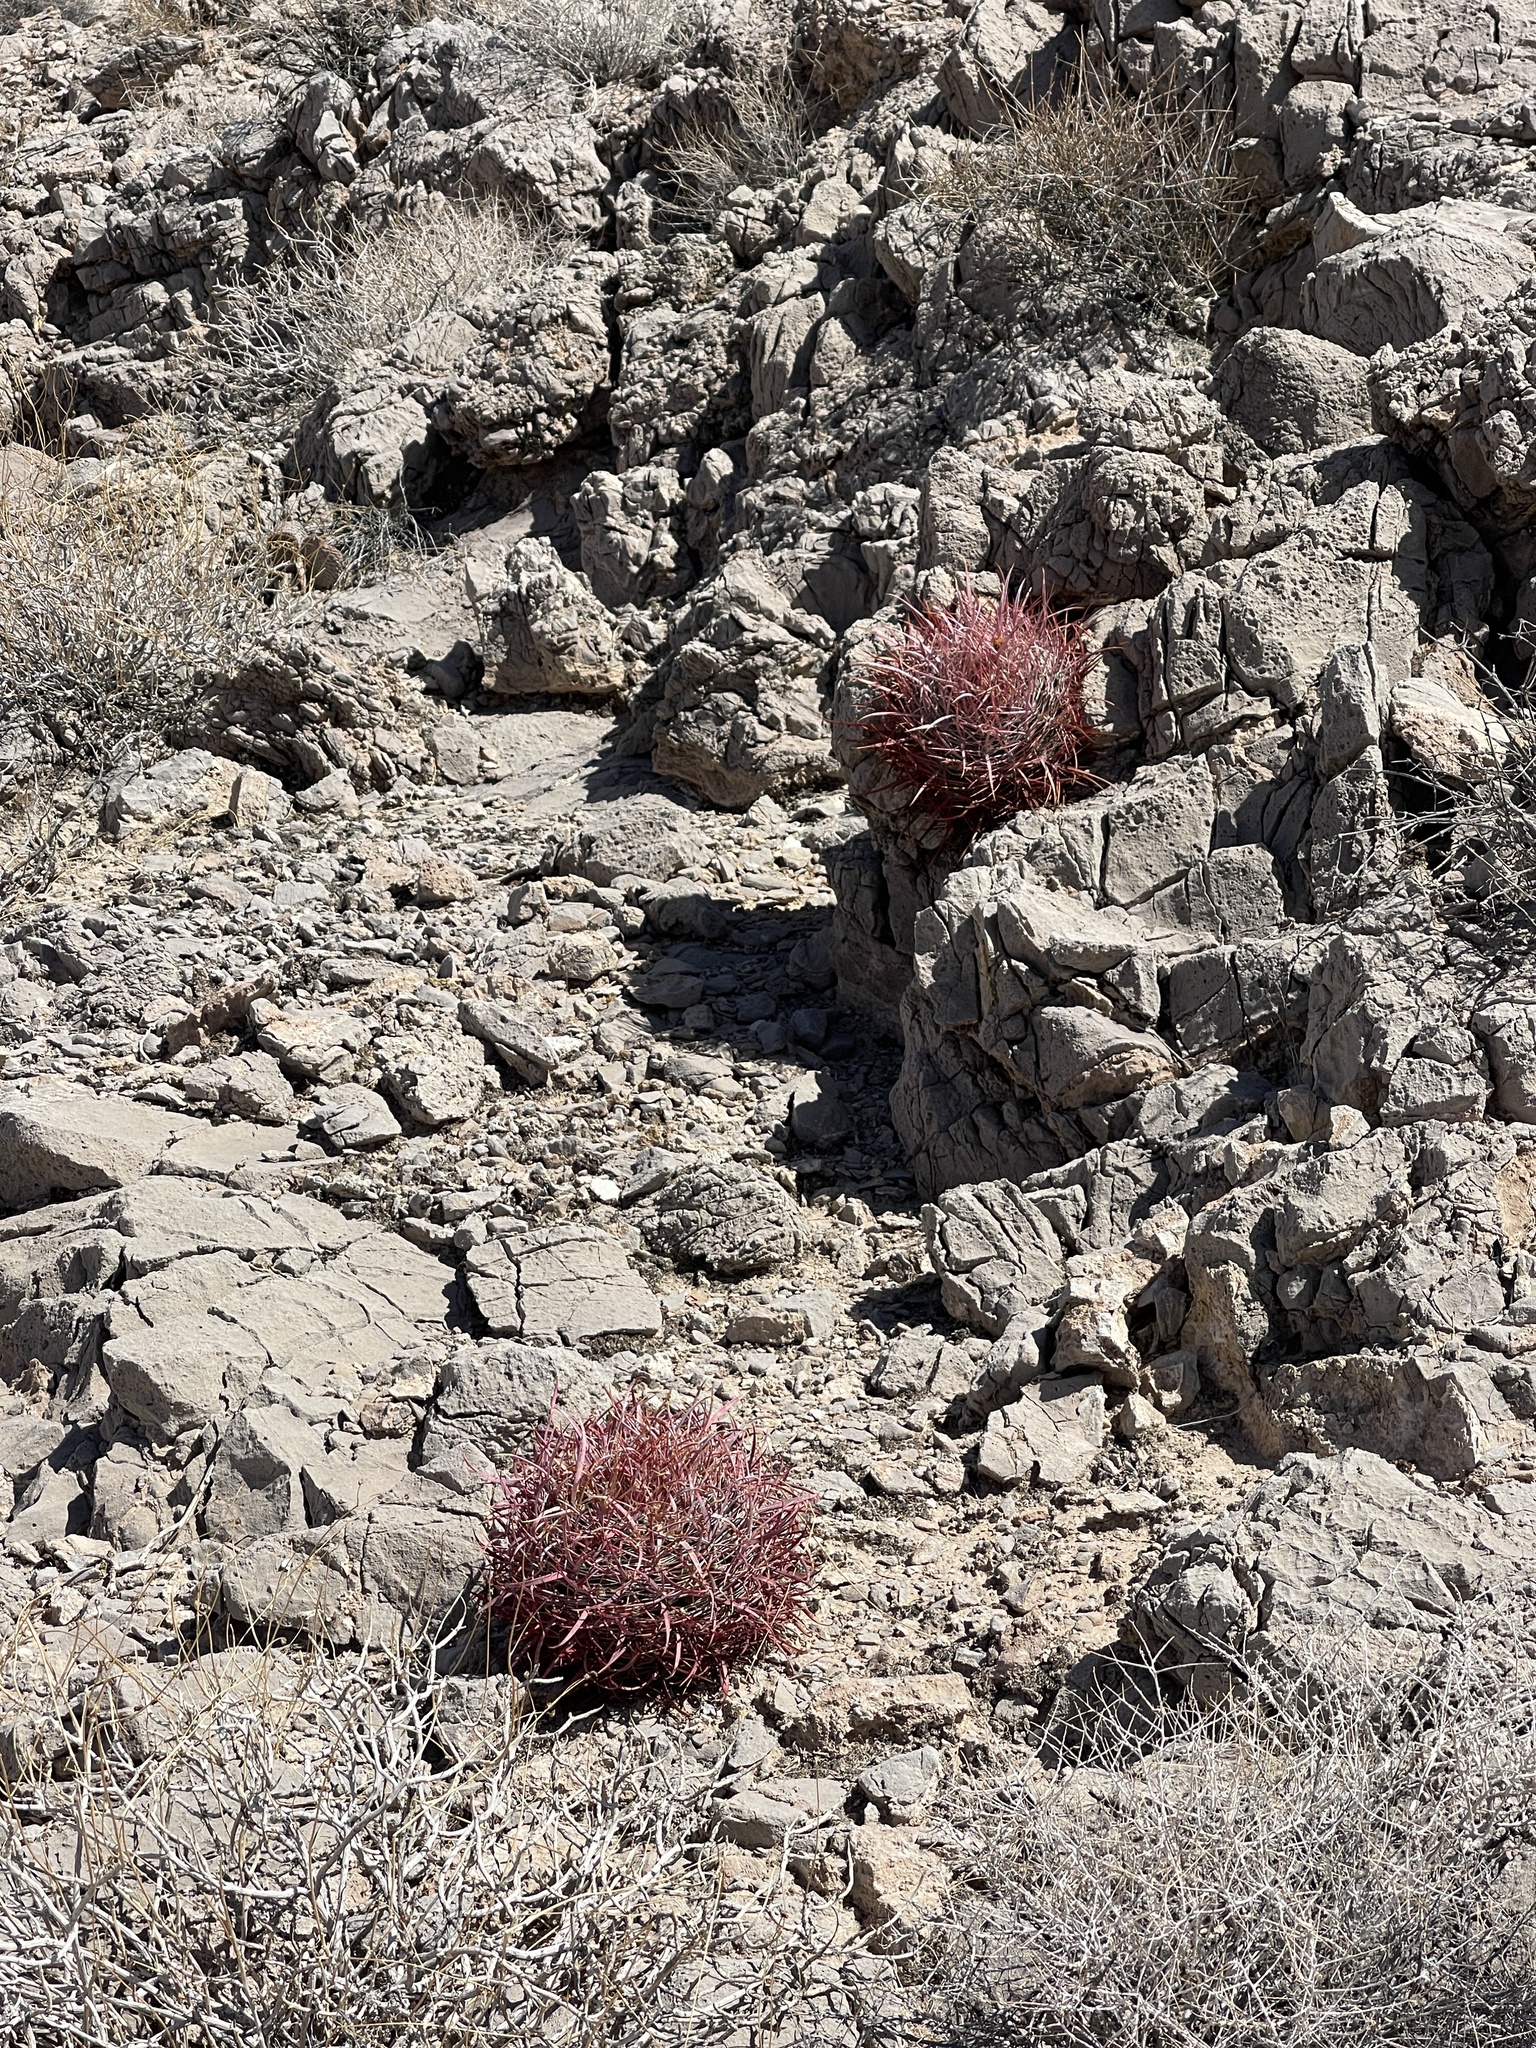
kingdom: Plantae
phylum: Tracheophyta
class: Magnoliopsida
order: Caryophyllales
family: Cactaceae
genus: Ferocactus
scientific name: Ferocactus cylindraceus
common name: California barrel cactus
